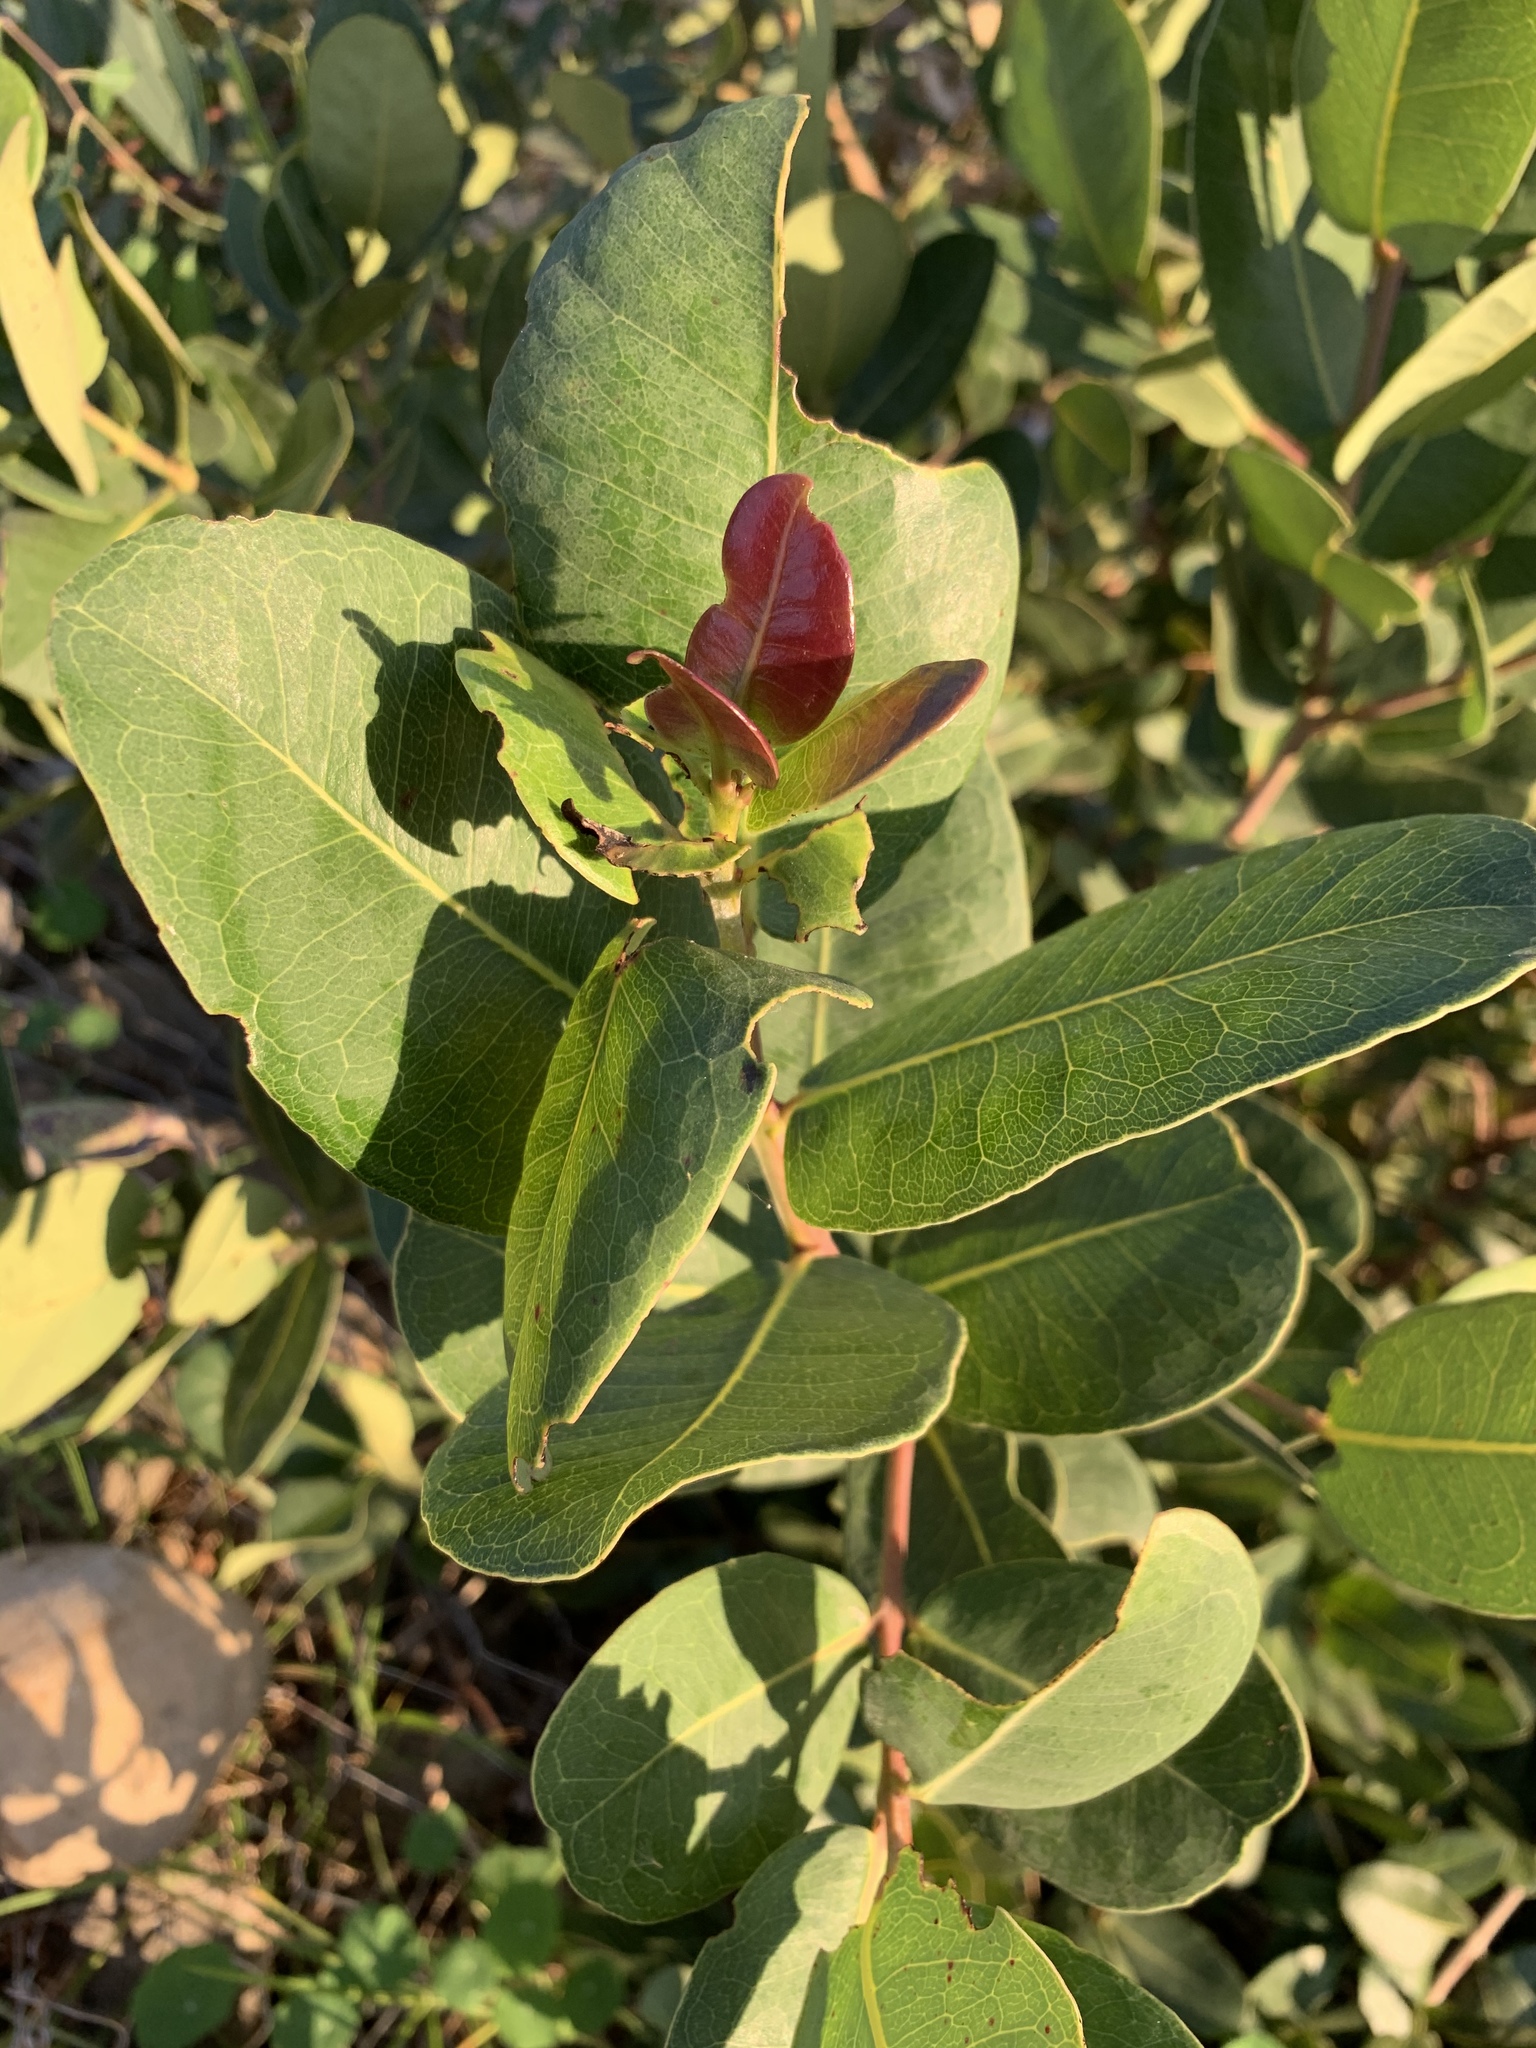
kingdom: Plantae
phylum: Tracheophyta
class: Magnoliopsida
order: Myrtales
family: Myrtaceae
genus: Syzygium
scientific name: Syzygium cordatum
